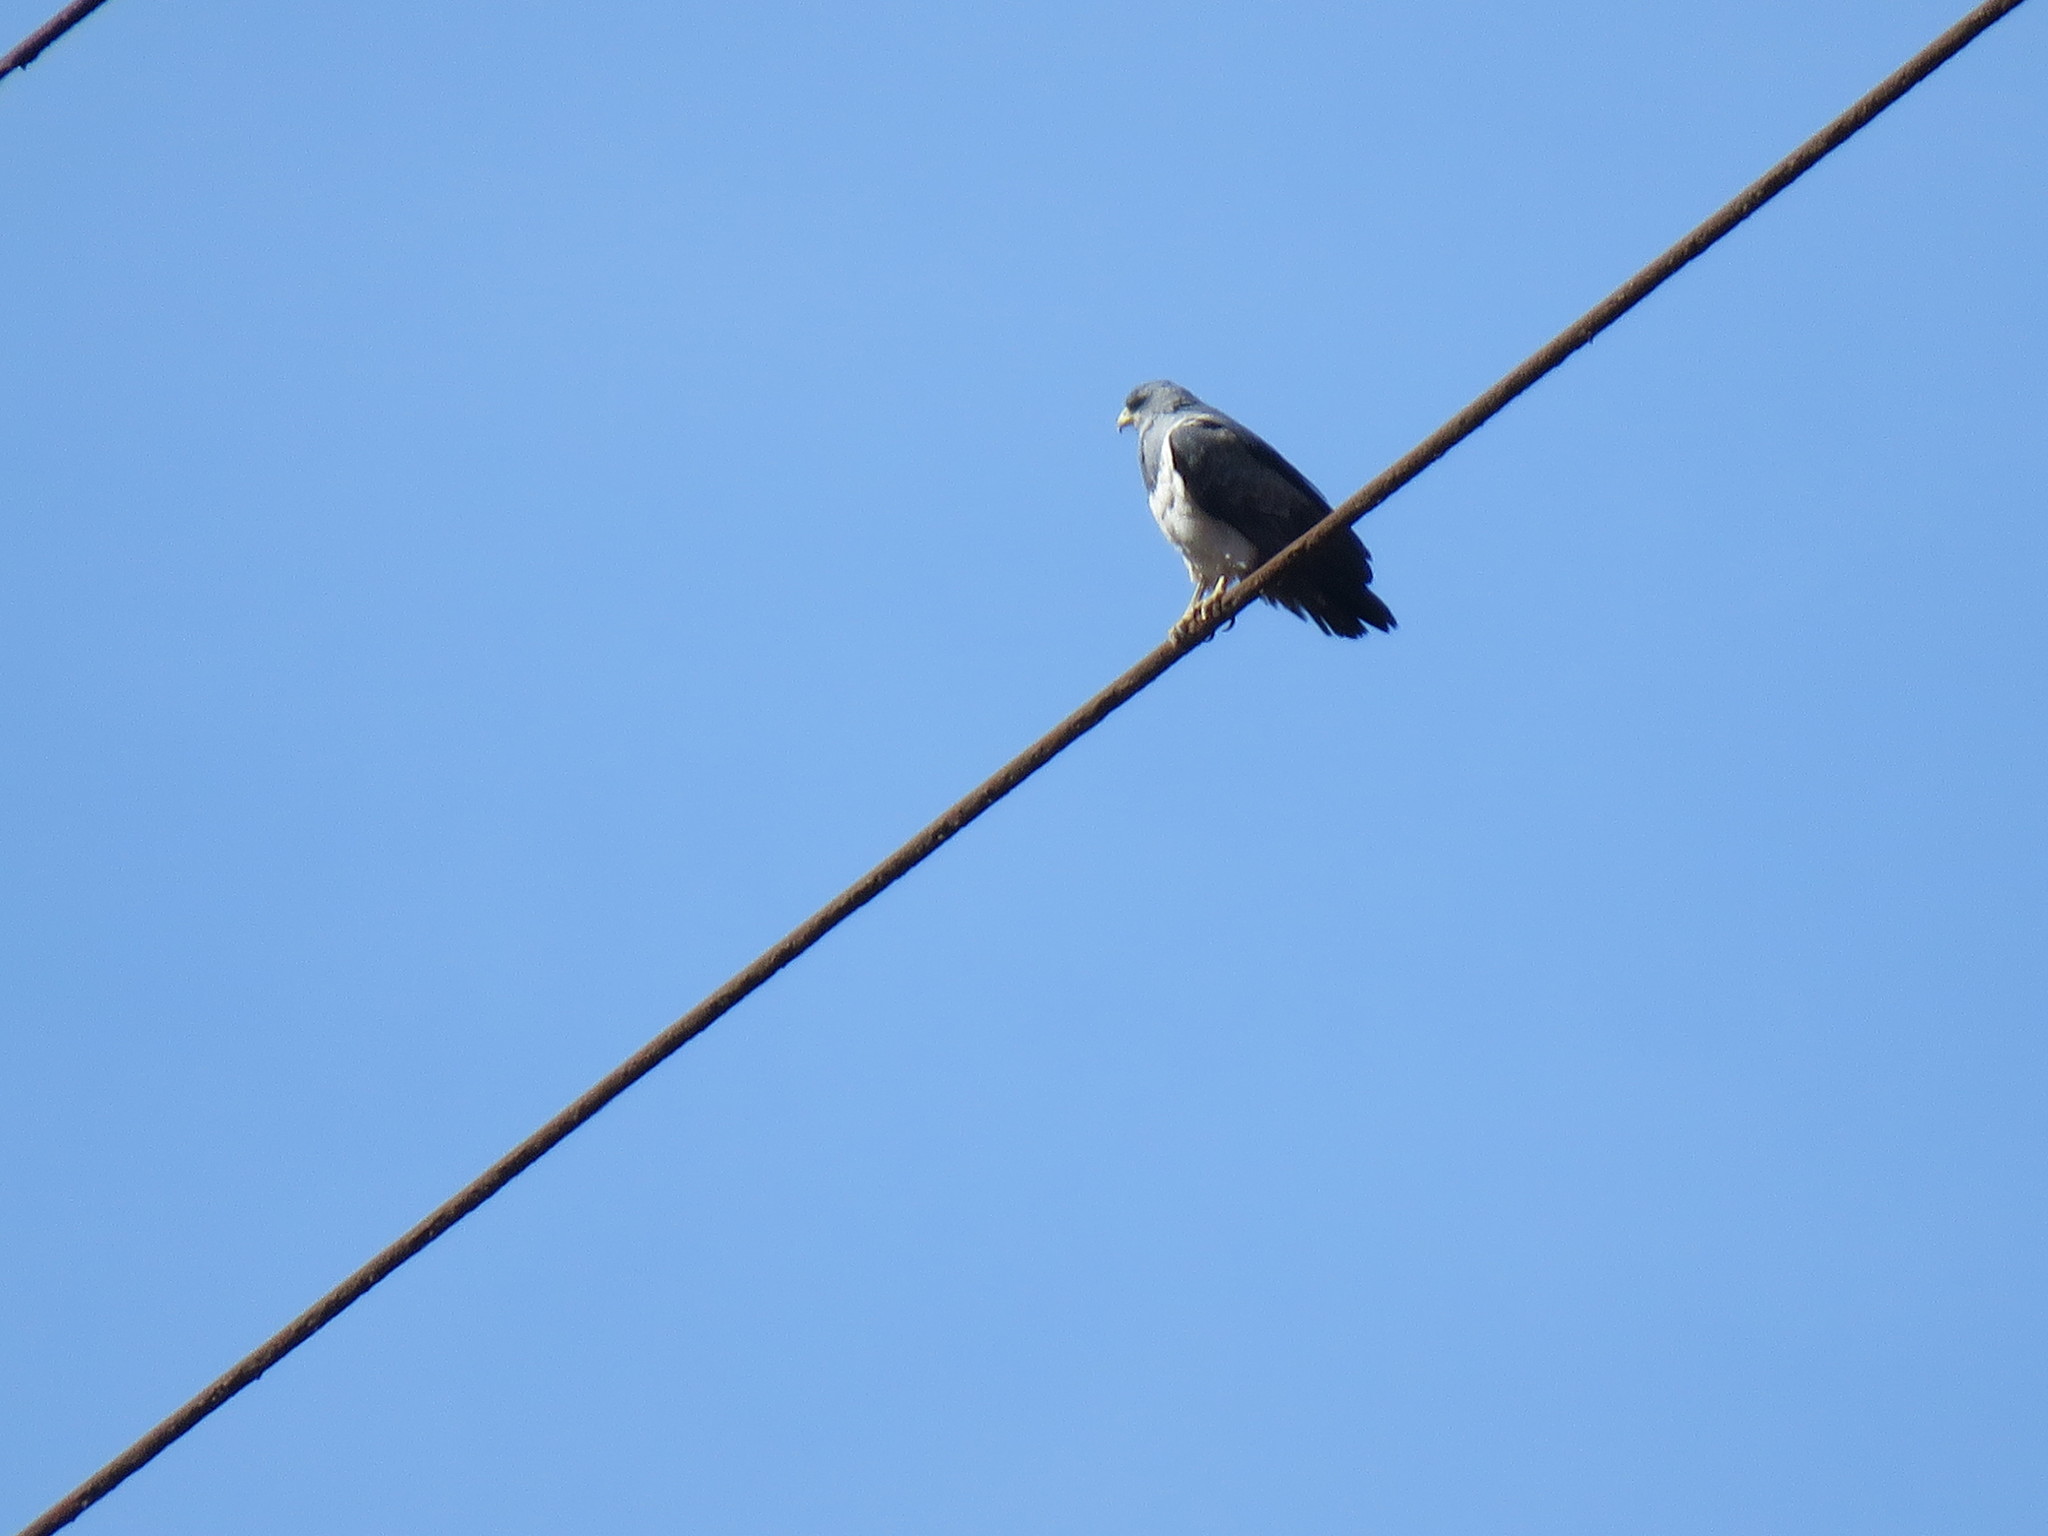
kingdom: Animalia
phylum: Chordata
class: Aves
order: Accipitriformes
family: Accipitridae
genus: Geranoaetus
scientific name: Geranoaetus melanoleucus
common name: Black-chested buzzard-eagle
